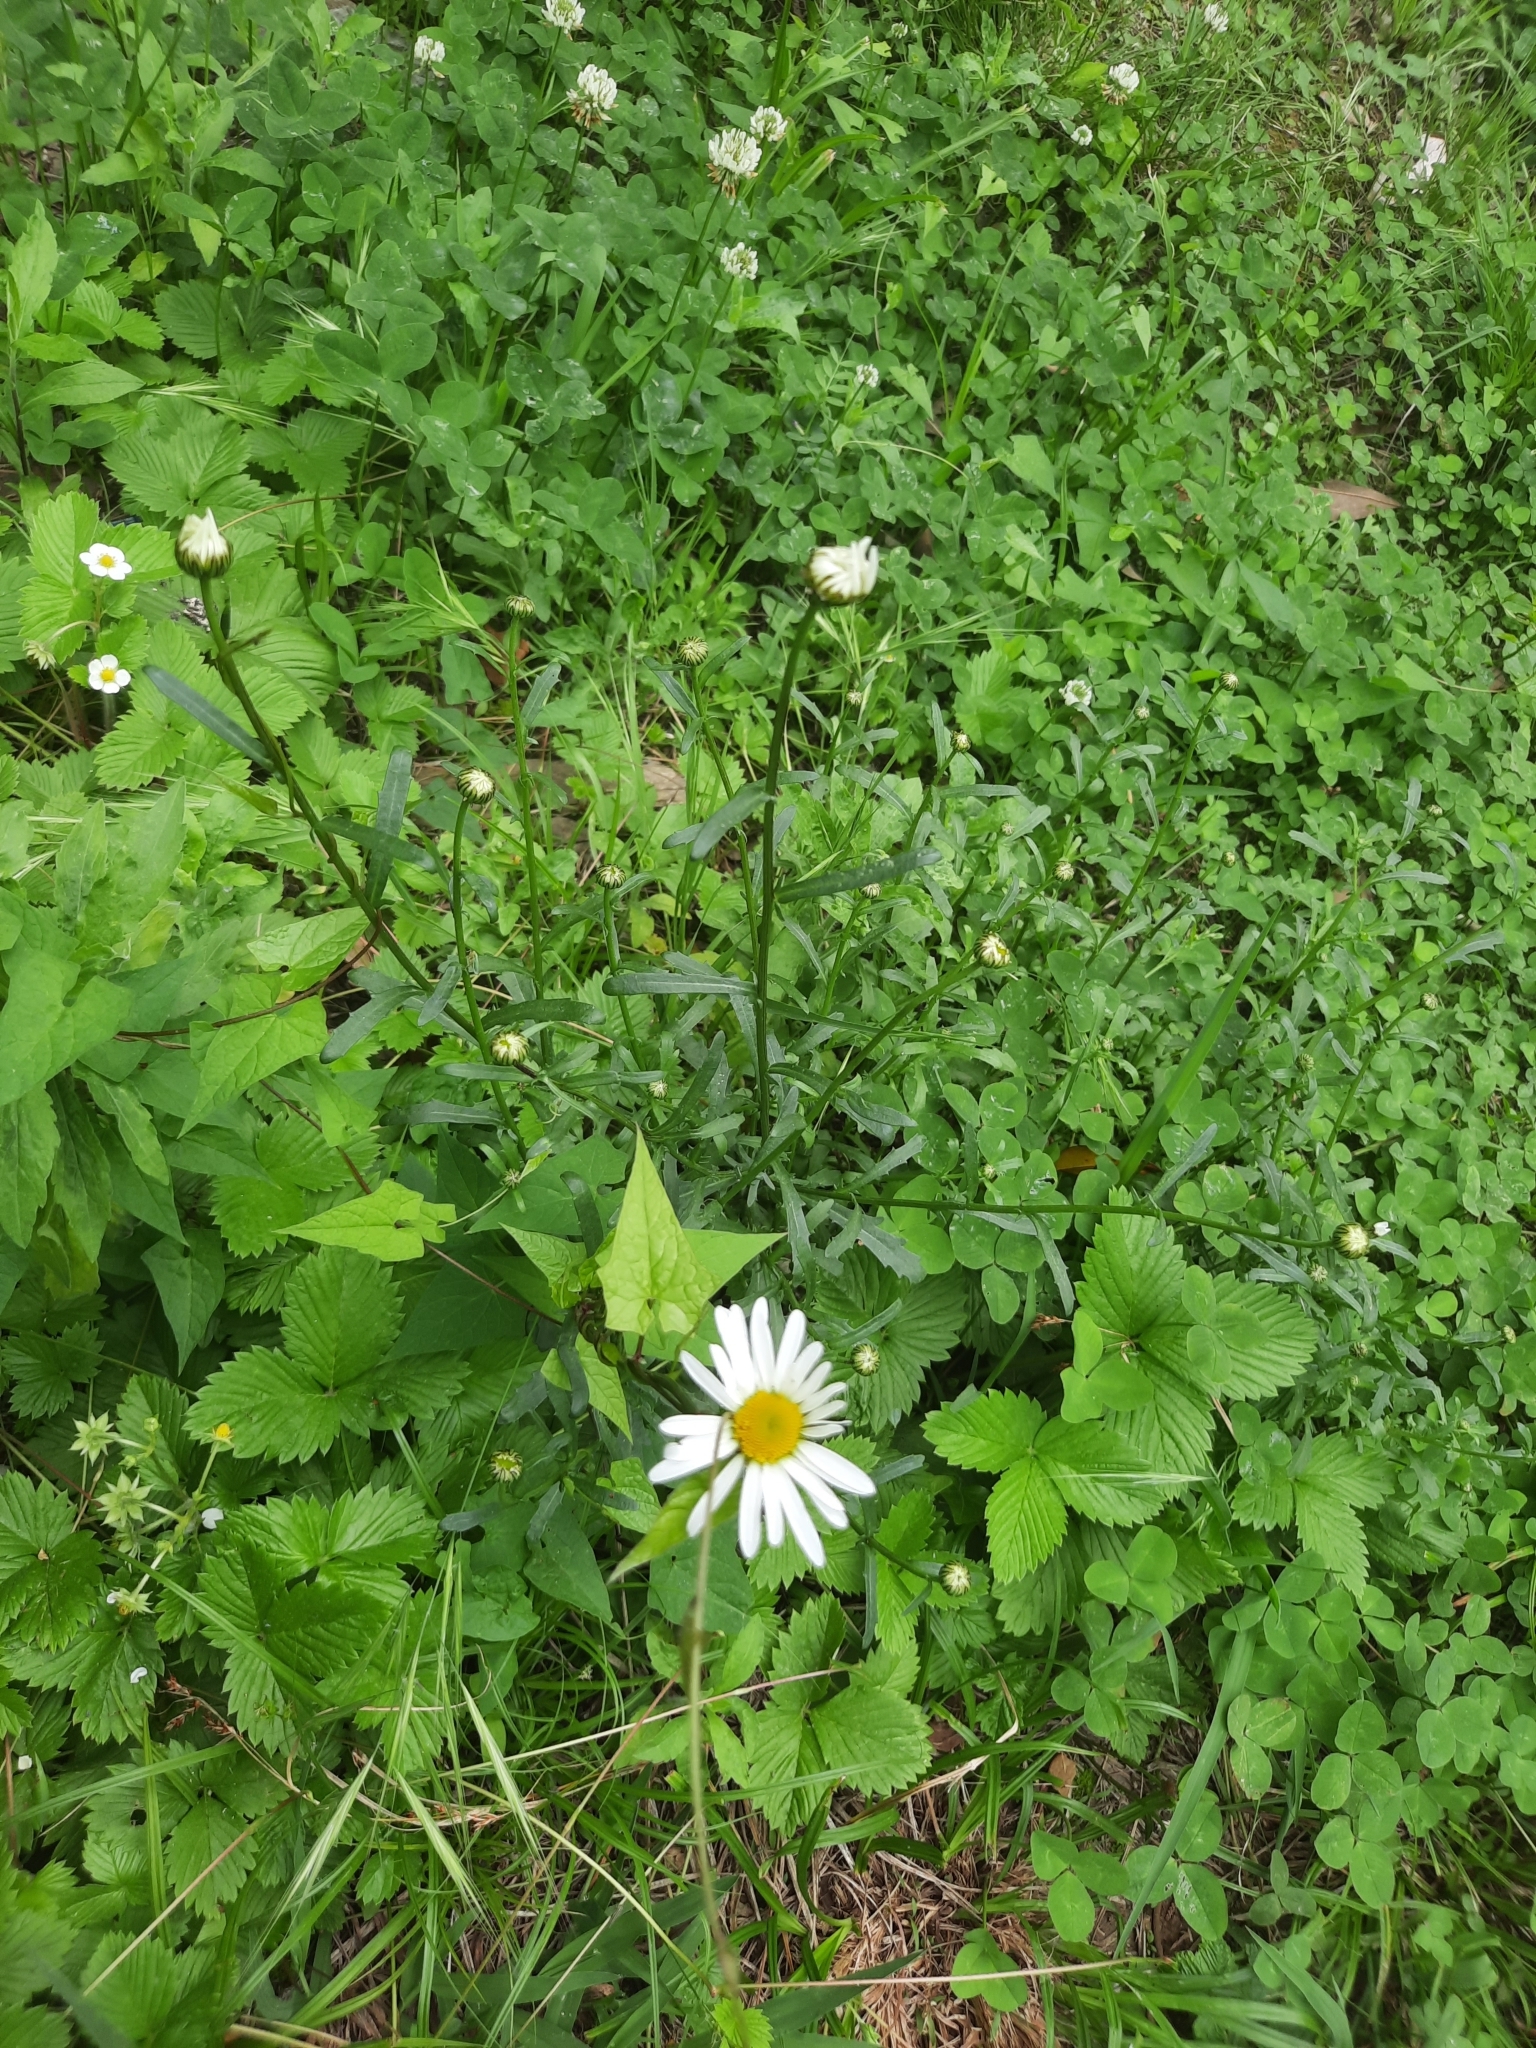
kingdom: Plantae
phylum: Tracheophyta
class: Magnoliopsida
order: Asterales
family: Asteraceae
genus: Leucanthemum
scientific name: Leucanthemum vulgare
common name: Oxeye daisy
